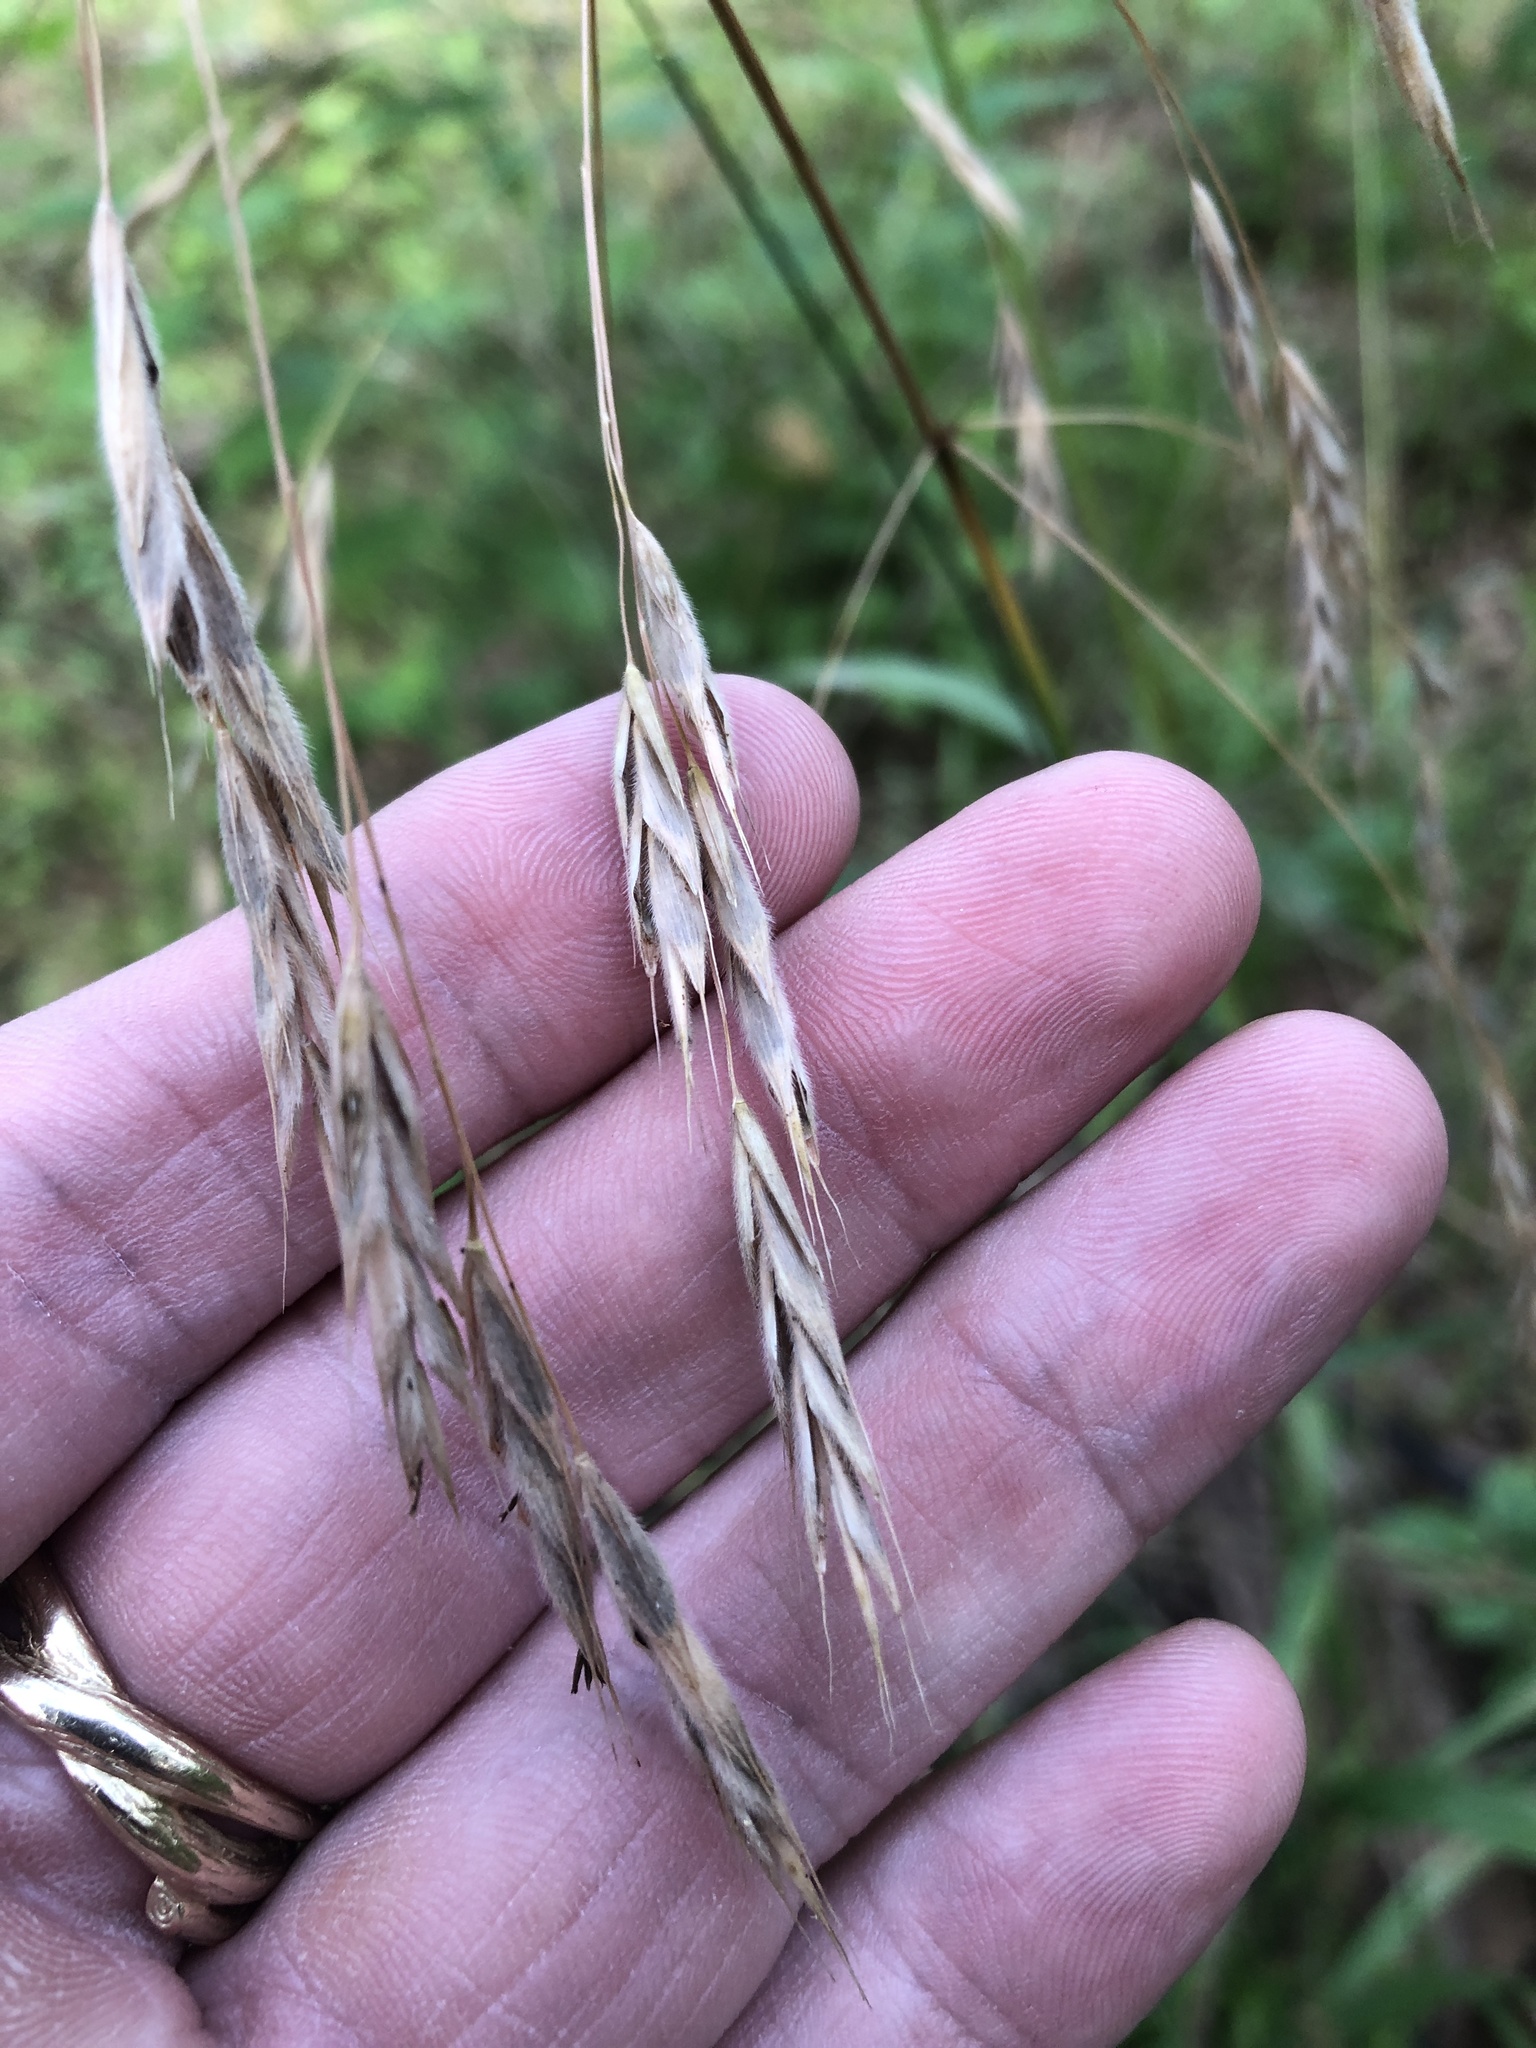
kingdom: Plantae
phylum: Tracheophyta
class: Liliopsida
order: Poales
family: Poaceae
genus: Bromus
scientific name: Bromus pubescens
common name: Hairy wood brome grass
